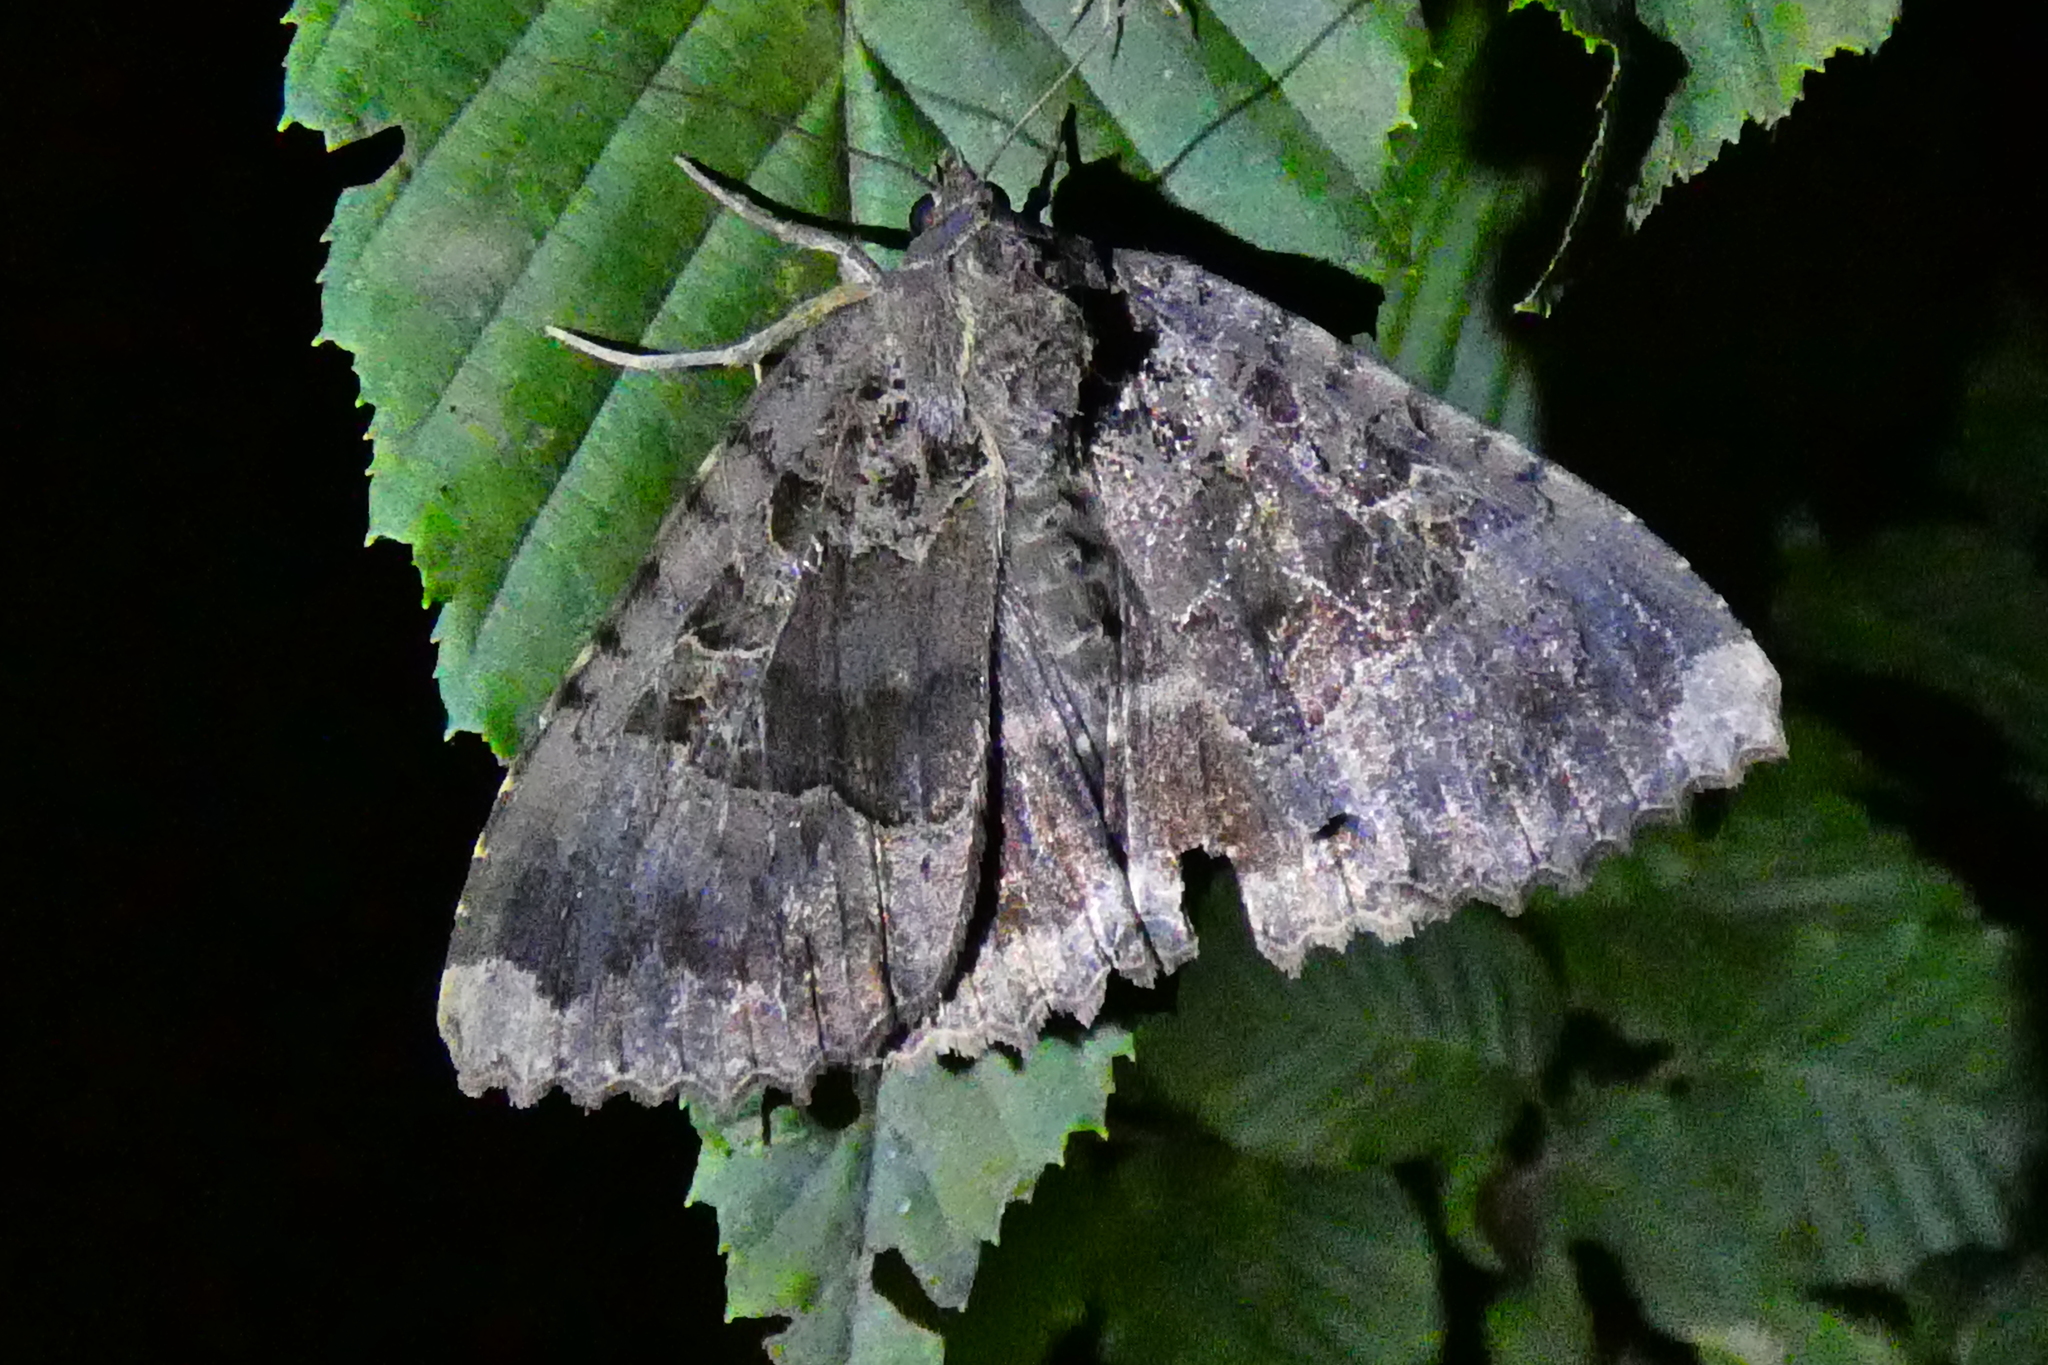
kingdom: Animalia
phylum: Arthropoda
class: Insecta
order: Lepidoptera
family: Noctuidae
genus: Mormo
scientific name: Mormo maura
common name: Old lady
